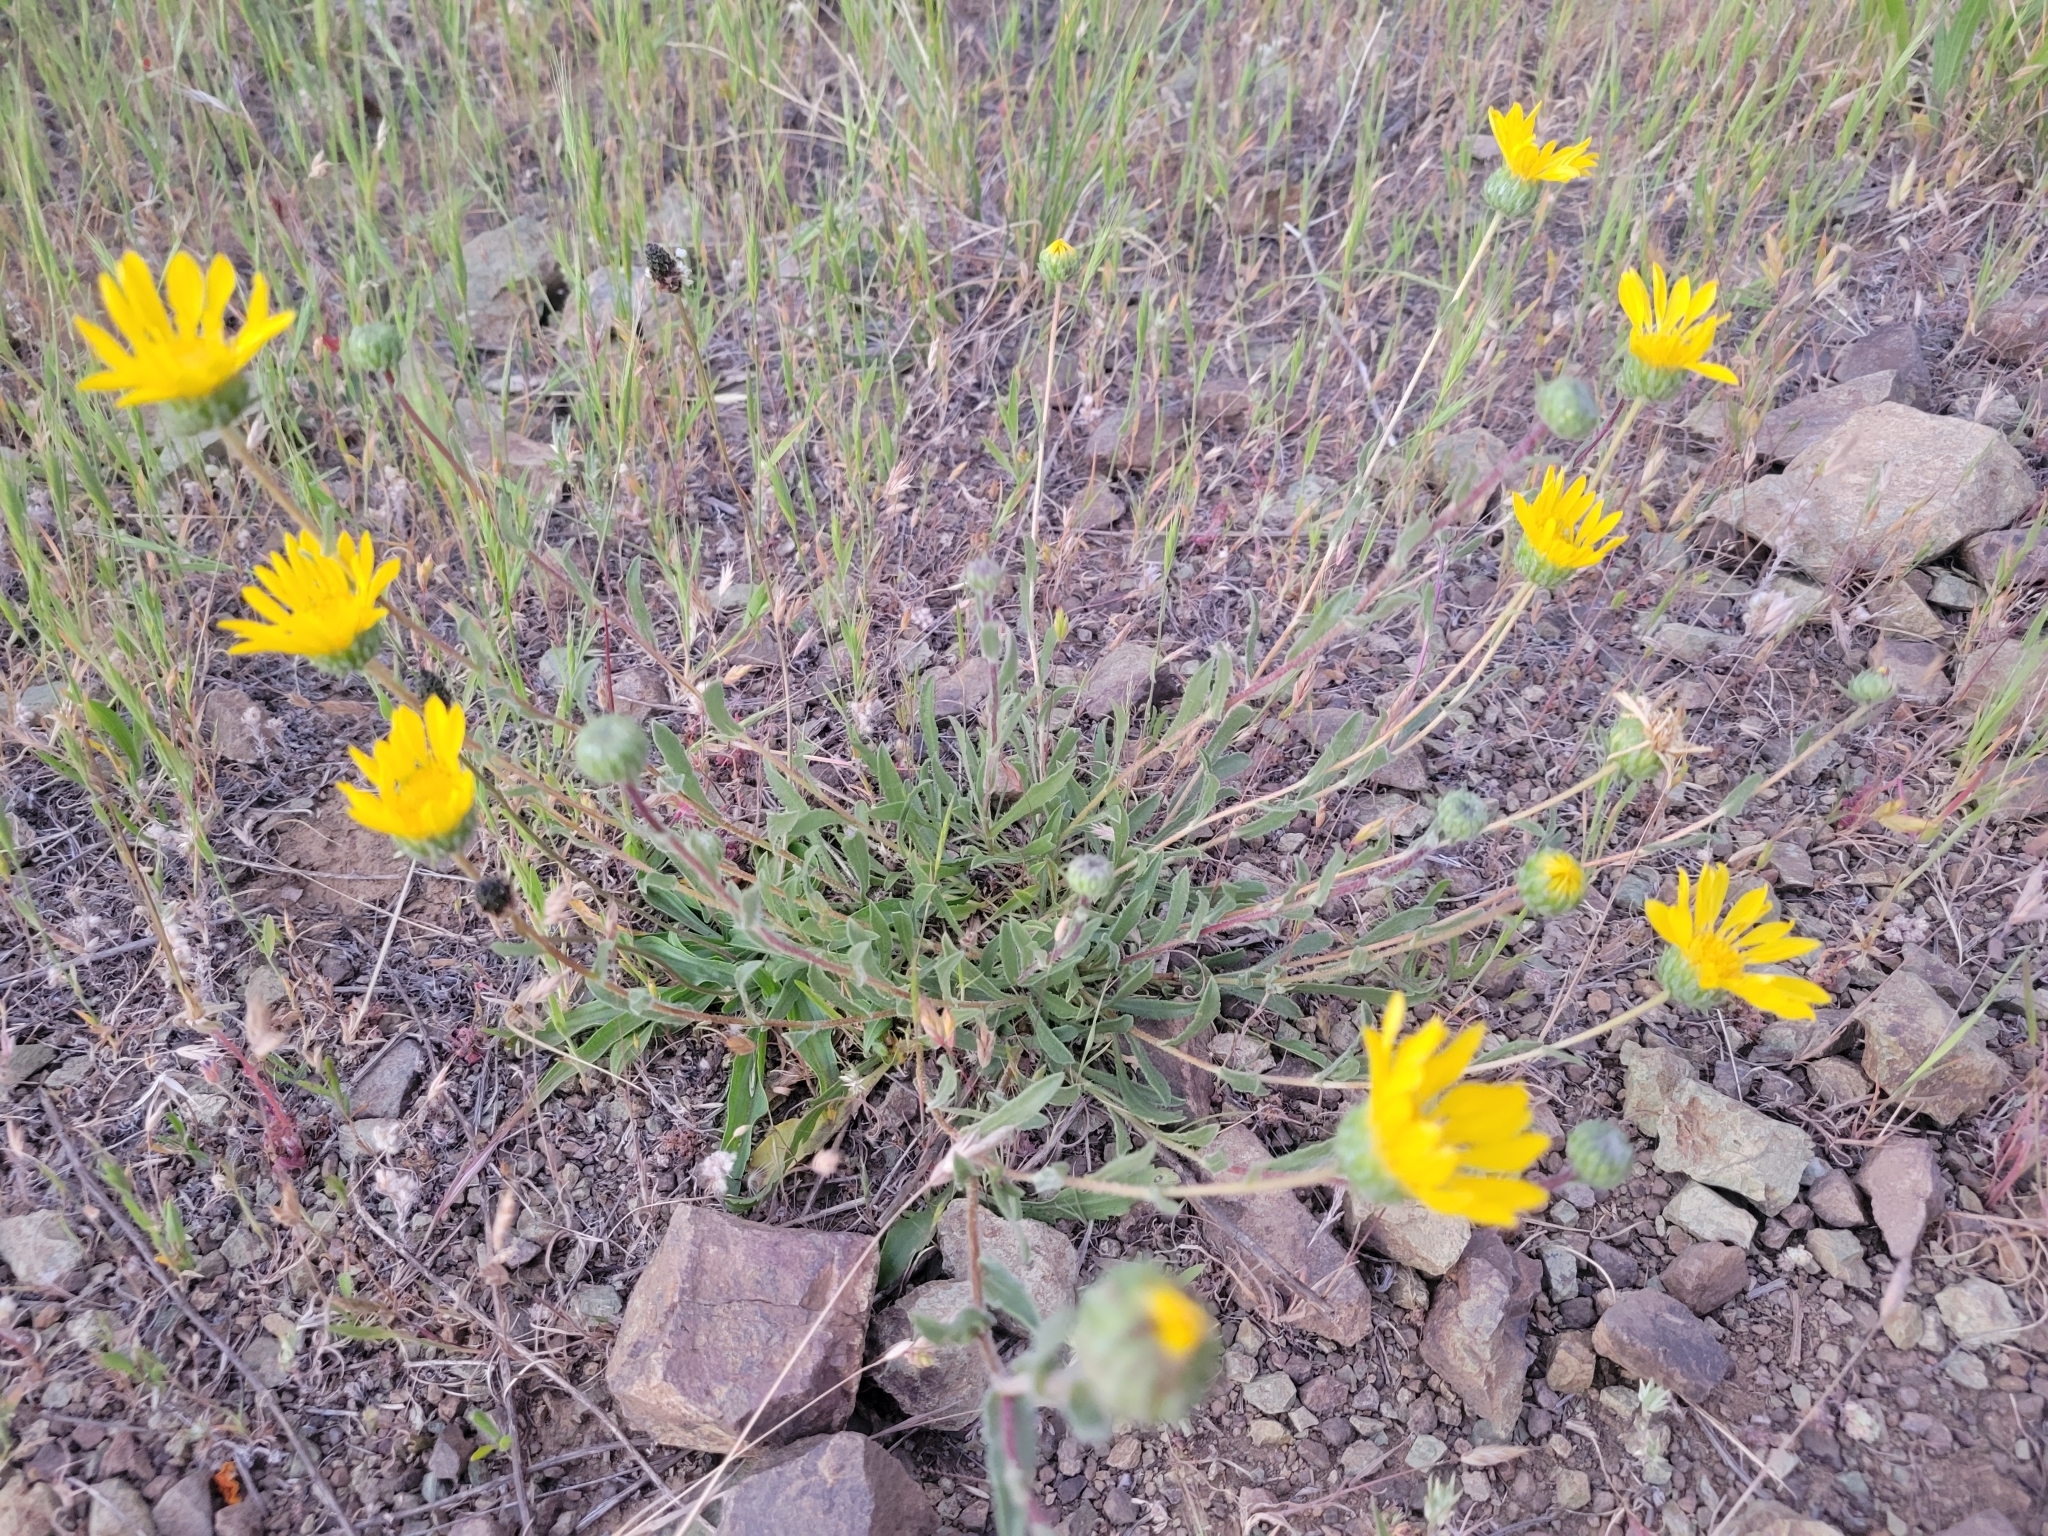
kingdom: Plantae
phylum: Tracheophyta
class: Magnoliopsida
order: Asterales
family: Asteraceae
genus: Grindelia
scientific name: Grindelia hirsutula
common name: Hairy gumweed
